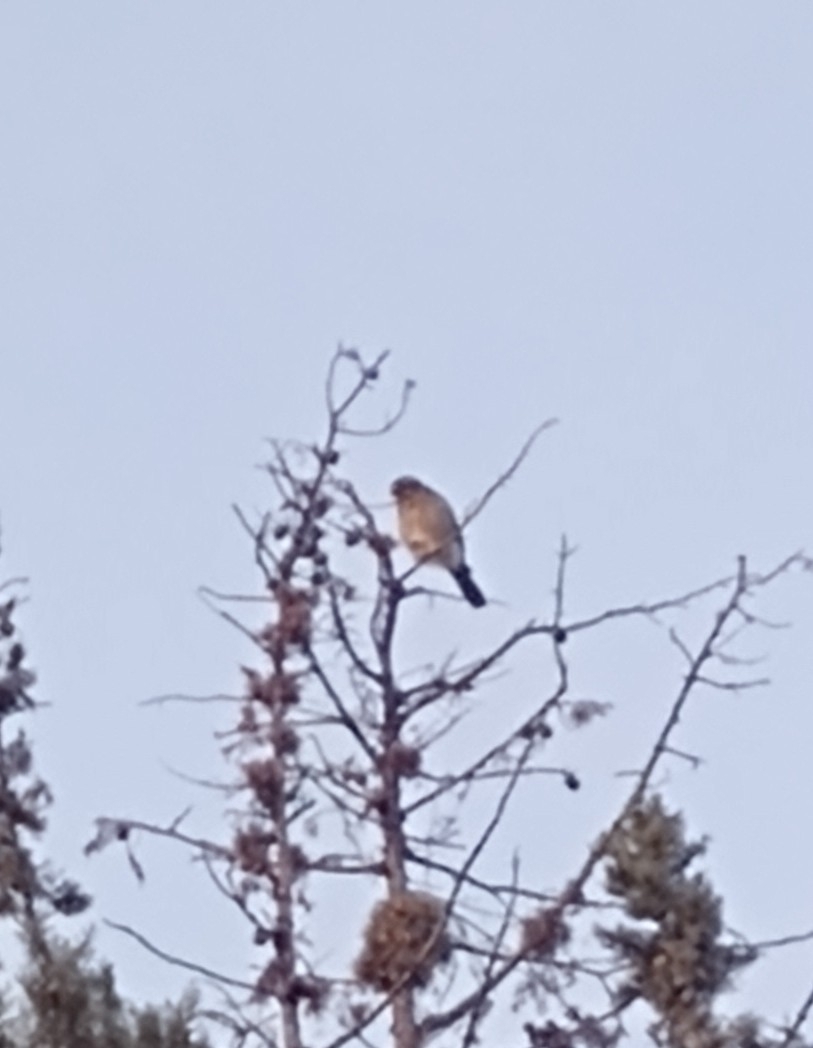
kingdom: Animalia
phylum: Chordata
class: Aves
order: Falconiformes
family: Falconidae
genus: Spiziapteryx
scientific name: Spiziapteryx circumcincta
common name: Spot-winged falconet
